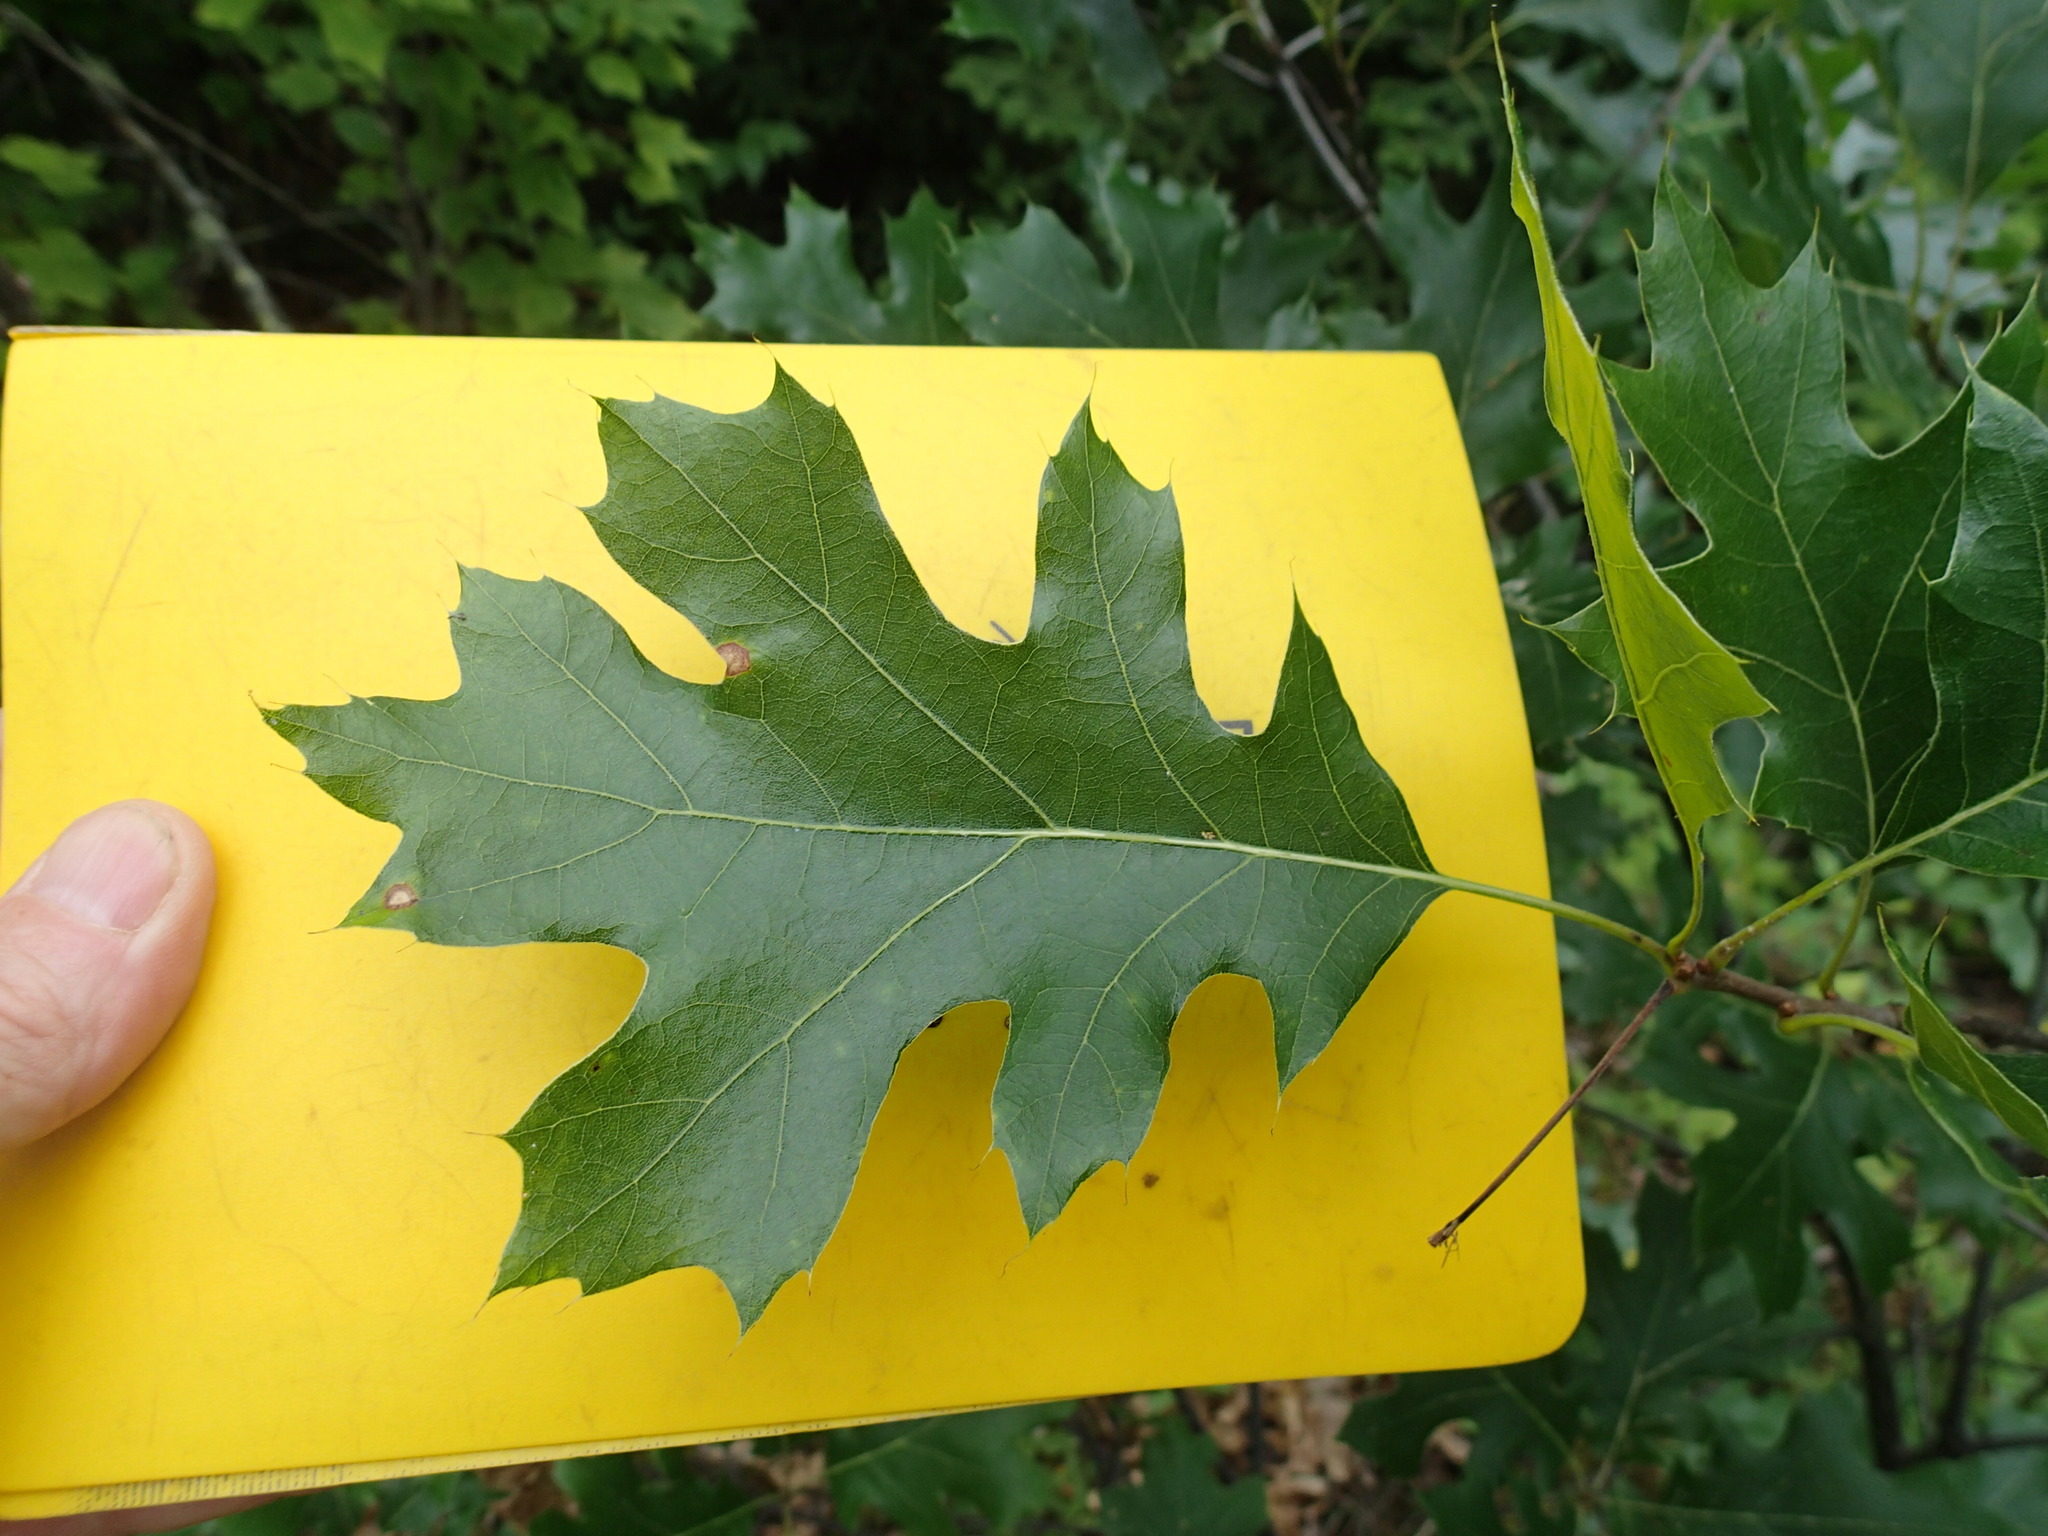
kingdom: Plantae
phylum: Tracheophyta
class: Magnoliopsida
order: Fagales
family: Fagaceae
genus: Quercus
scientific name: Quercus ellipsoidalis
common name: Hill's oak
